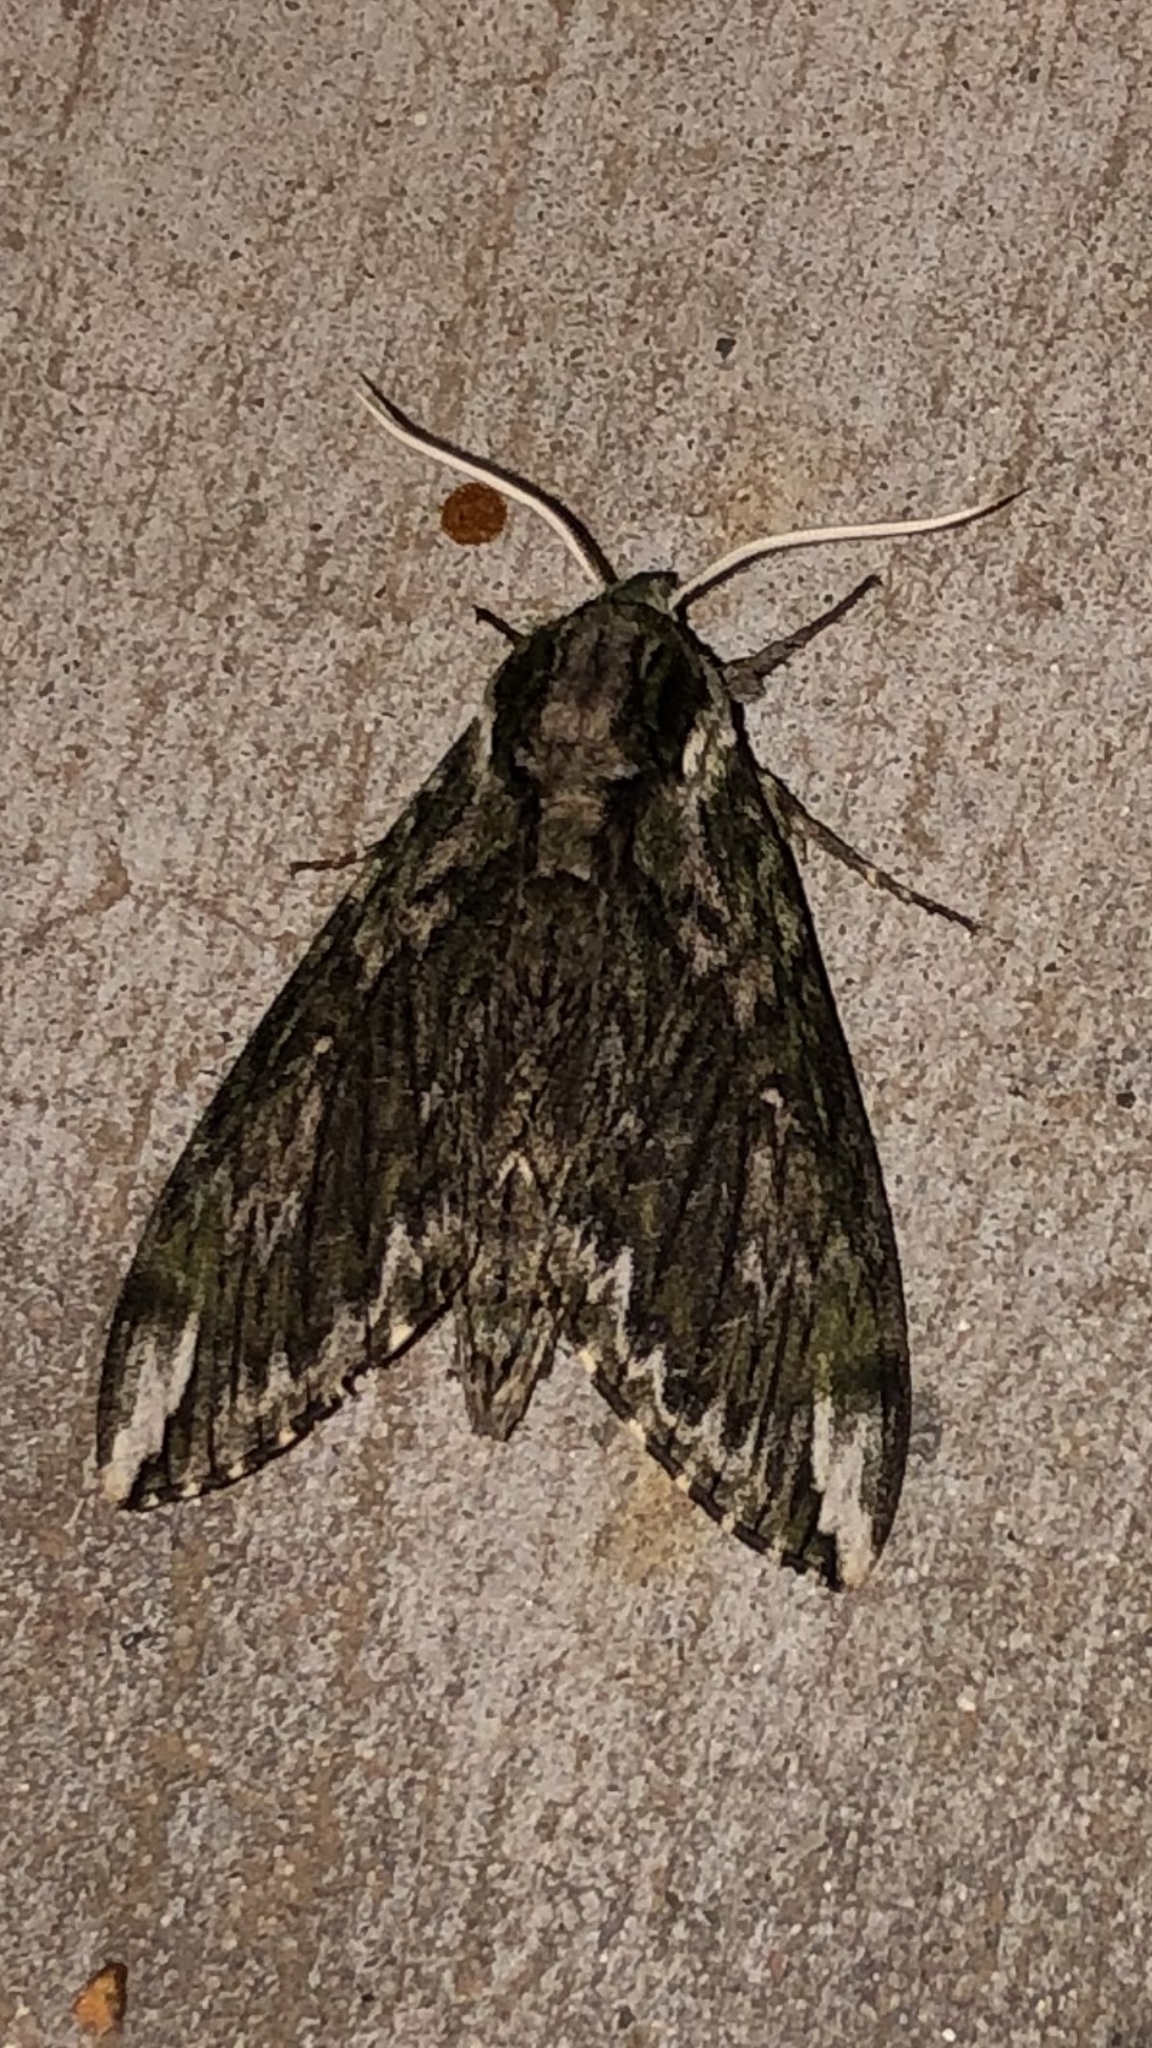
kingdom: Animalia
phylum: Arthropoda
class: Insecta
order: Lepidoptera
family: Sphingidae
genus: Ceratomia
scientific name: Ceratomia hageni
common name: Hagen's sphinx
